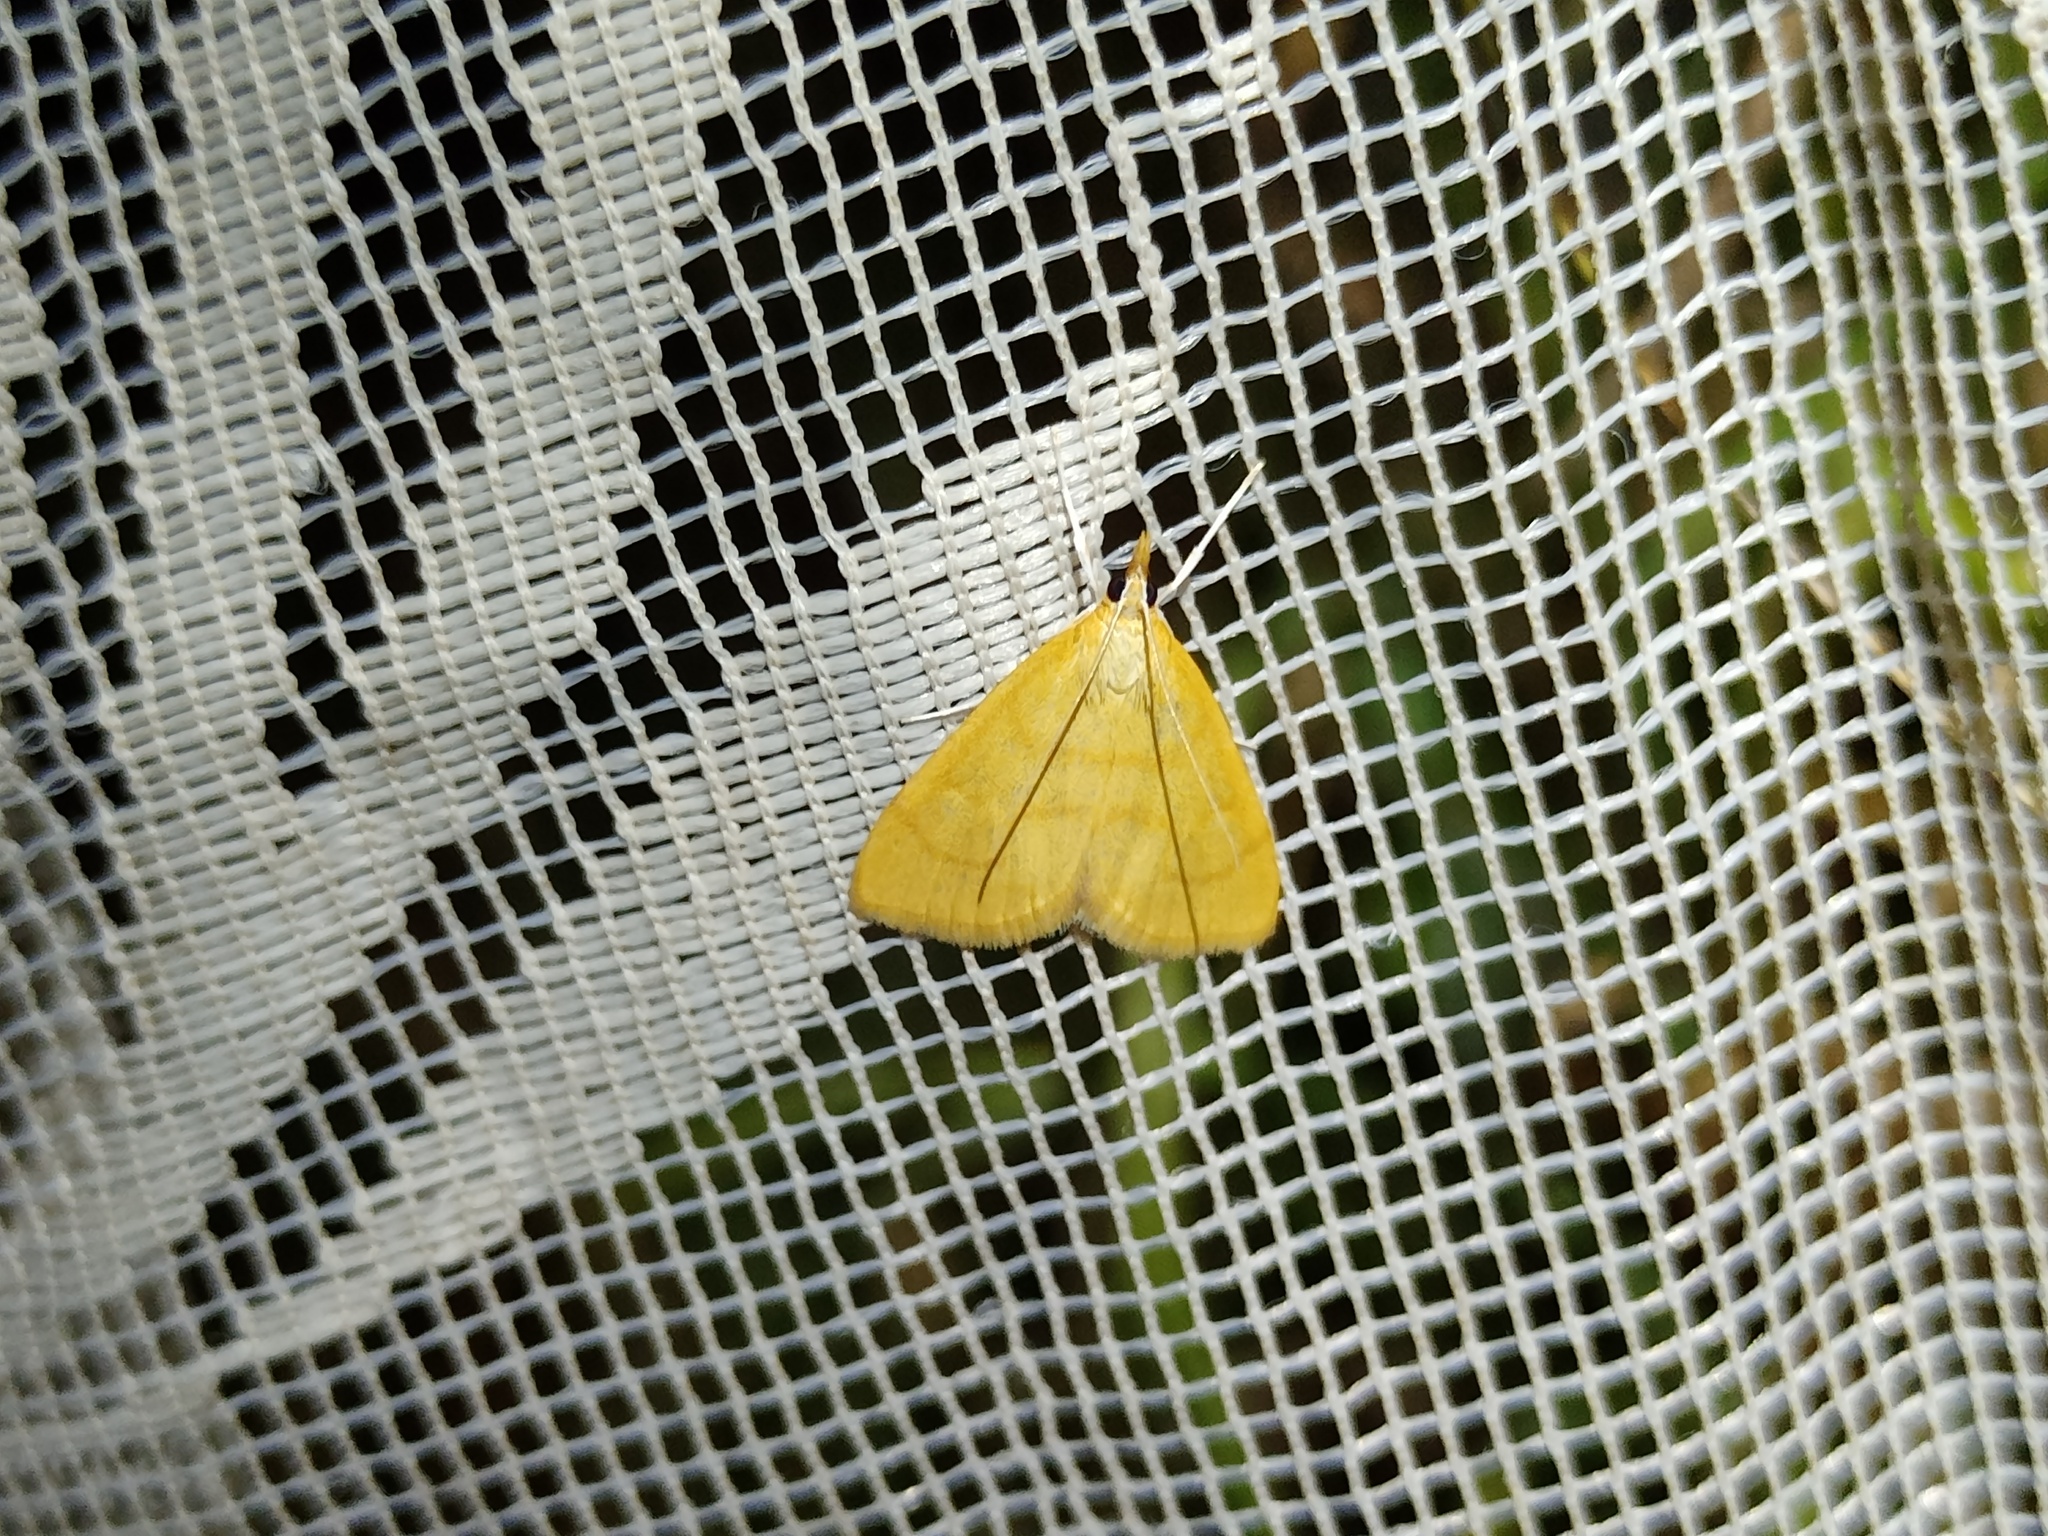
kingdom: Animalia
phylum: Arthropoda
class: Insecta
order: Lepidoptera
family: Crambidae
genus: Anania
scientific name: Anania crocealis
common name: Ochreous pearl
